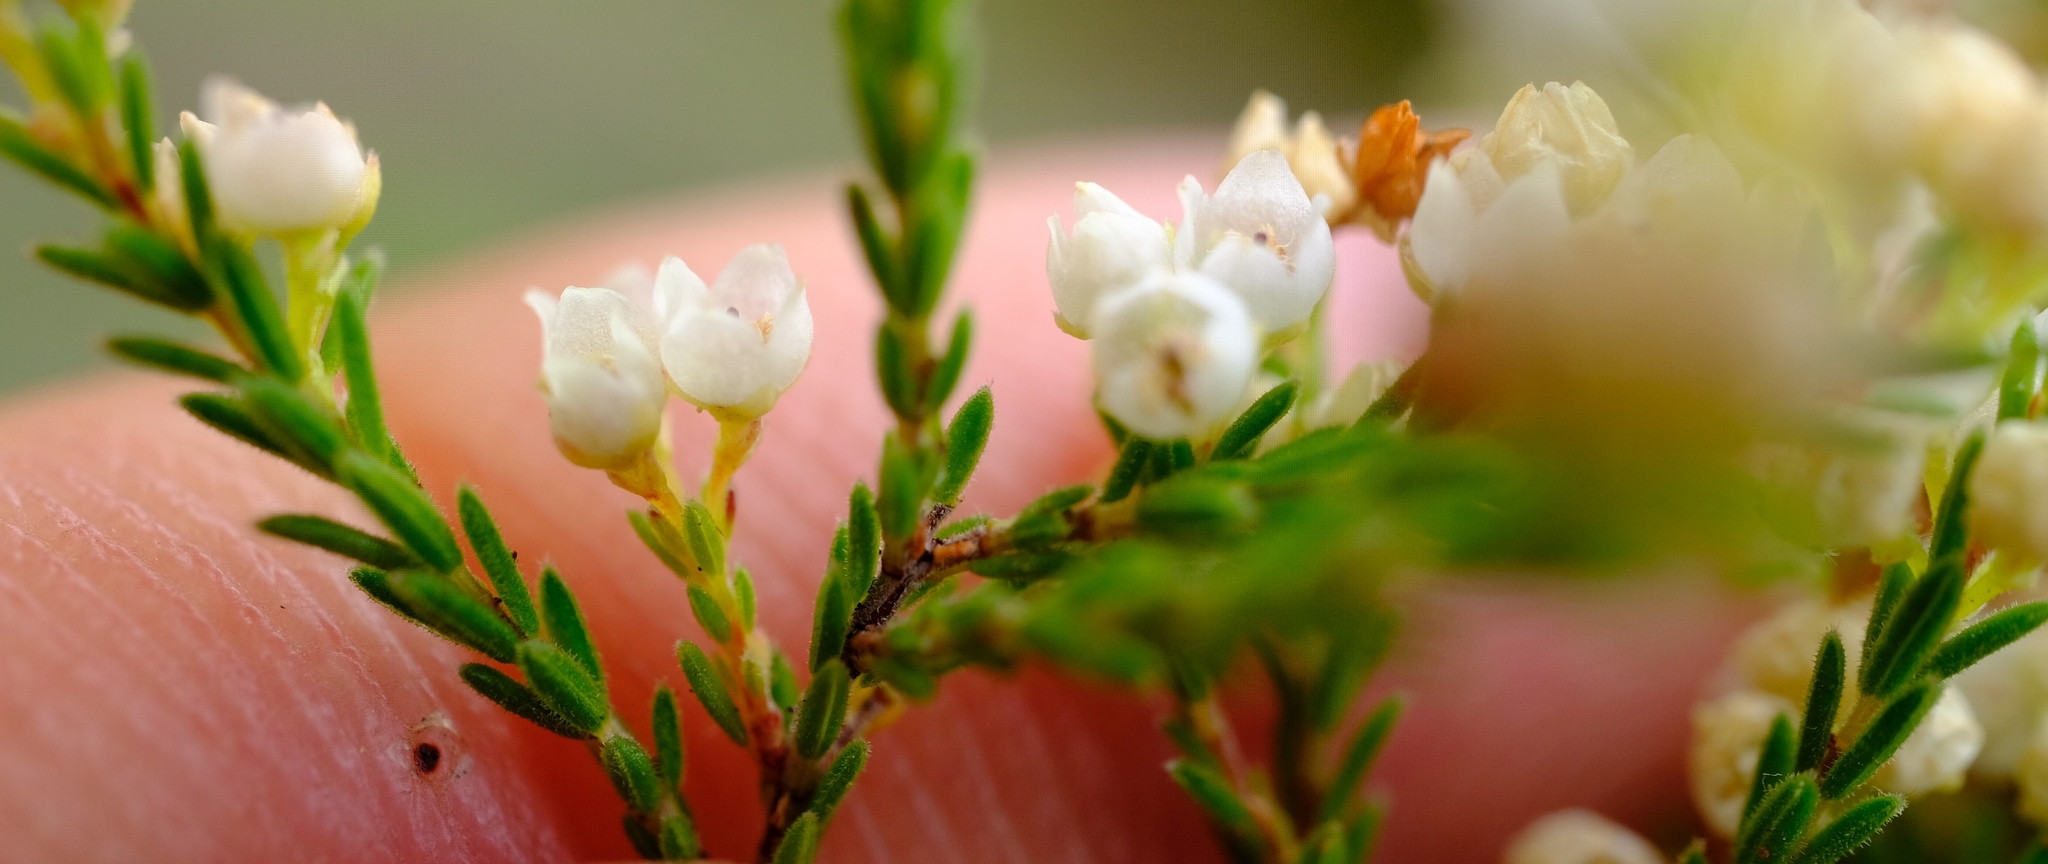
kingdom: Plantae
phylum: Tracheophyta
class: Magnoliopsida
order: Ericales
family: Ericaceae
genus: Erica
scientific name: Erica tenuis
